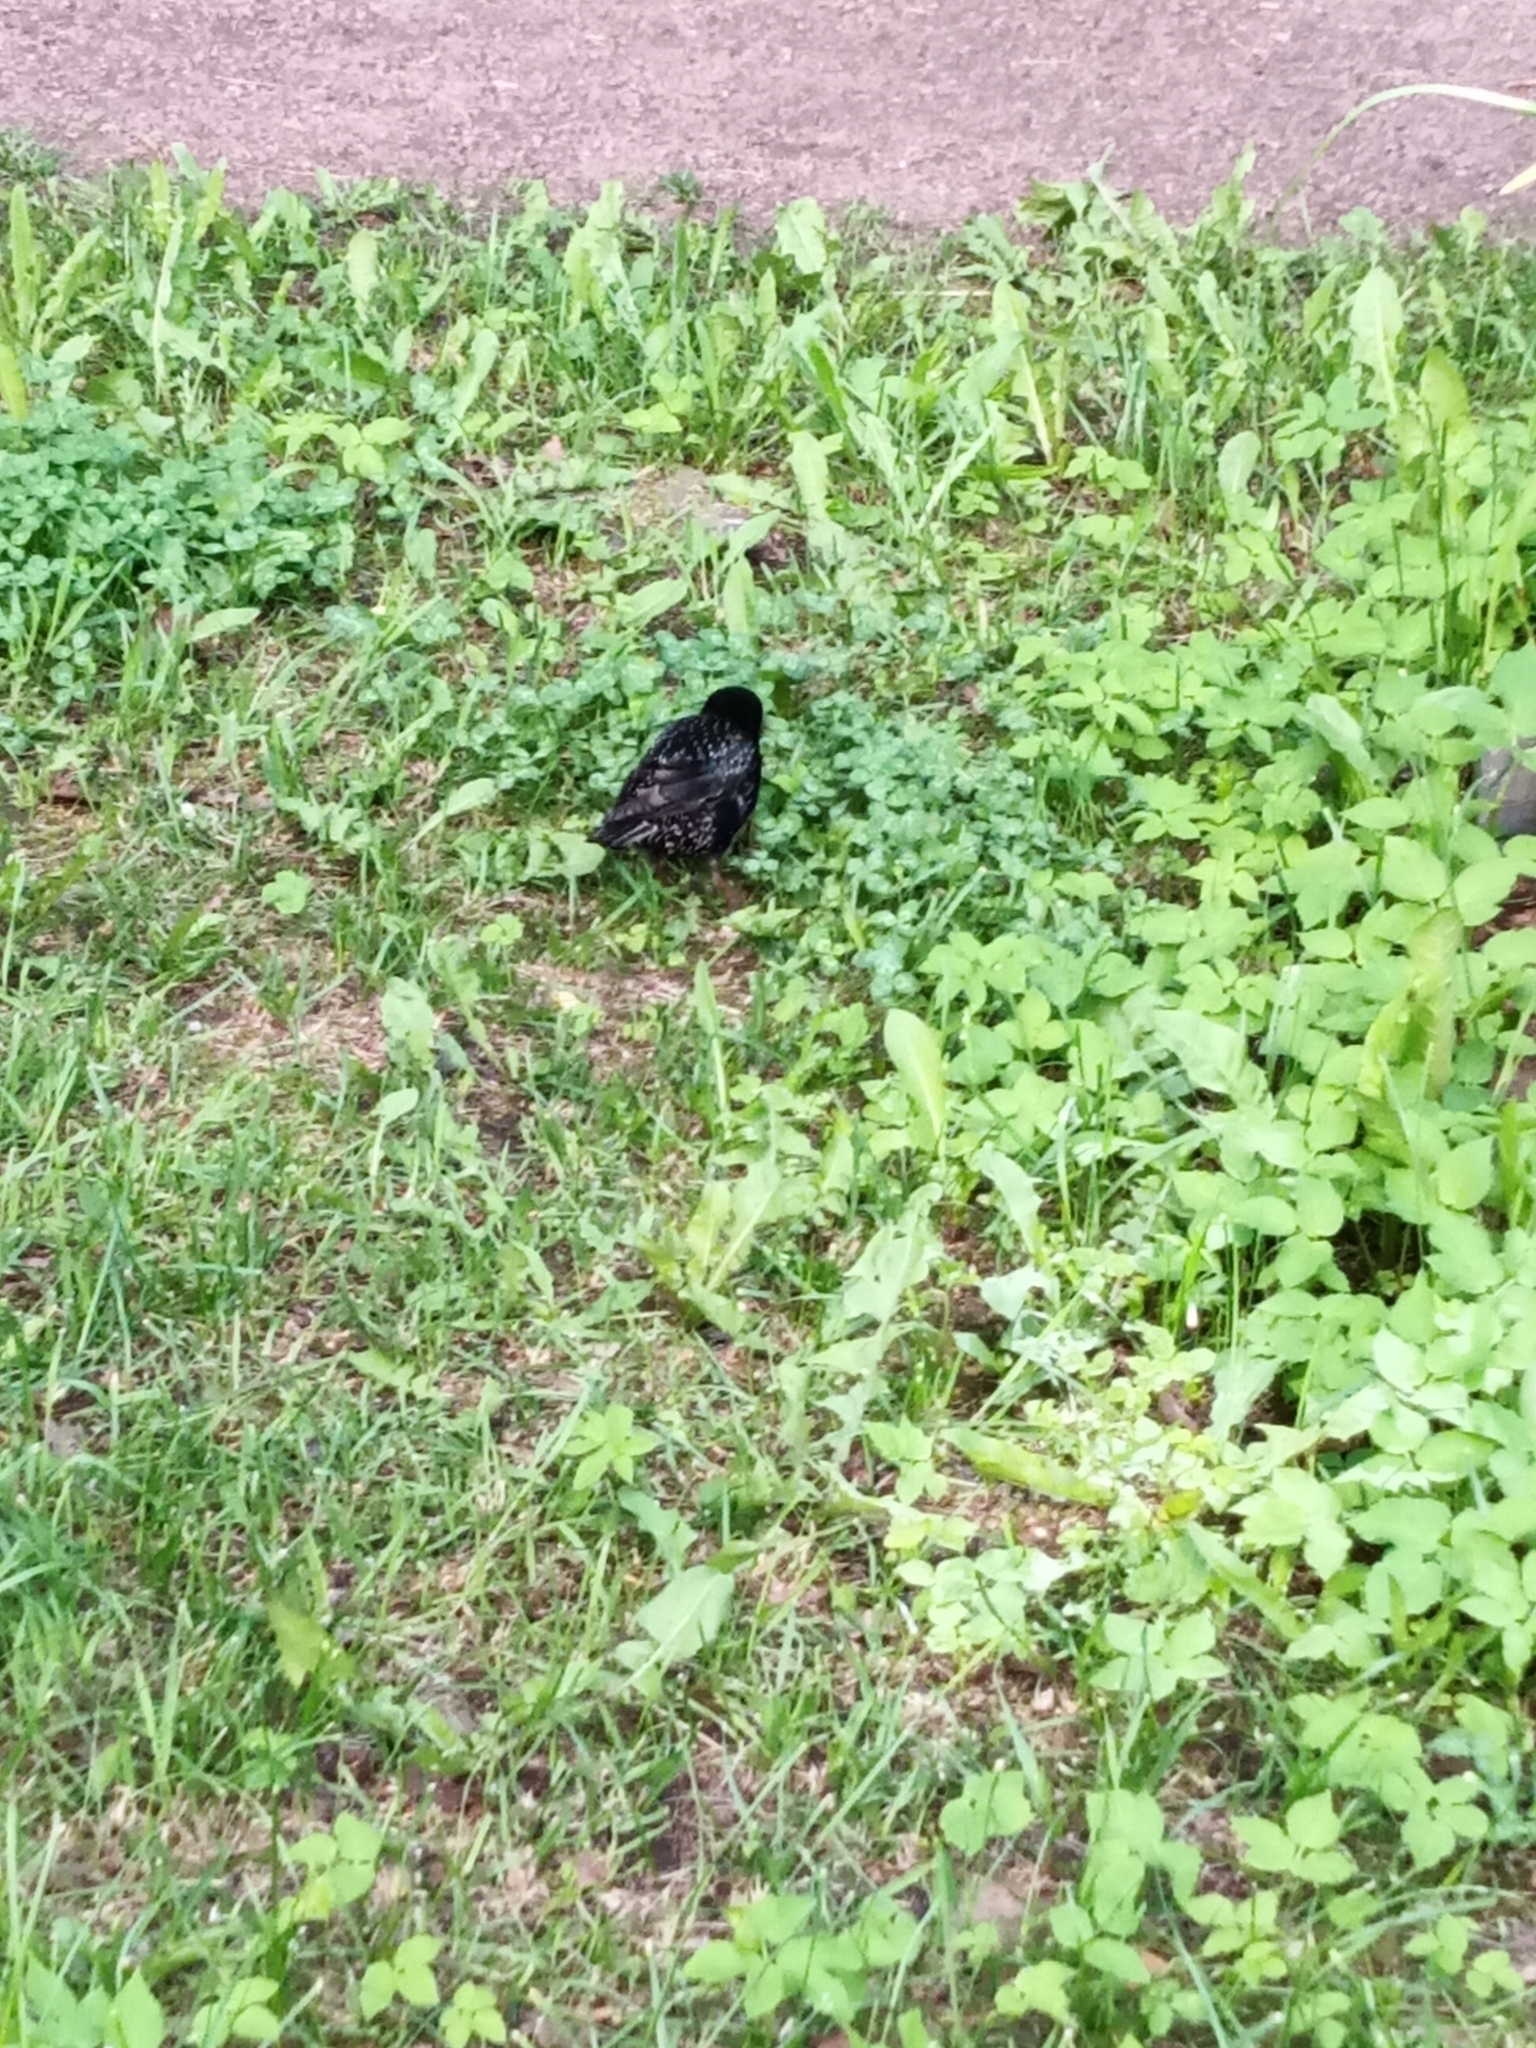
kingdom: Animalia
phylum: Chordata
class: Aves
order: Passeriformes
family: Sturnidae
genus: Sturnus
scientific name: Sturnus vulgaris
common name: Common starling
